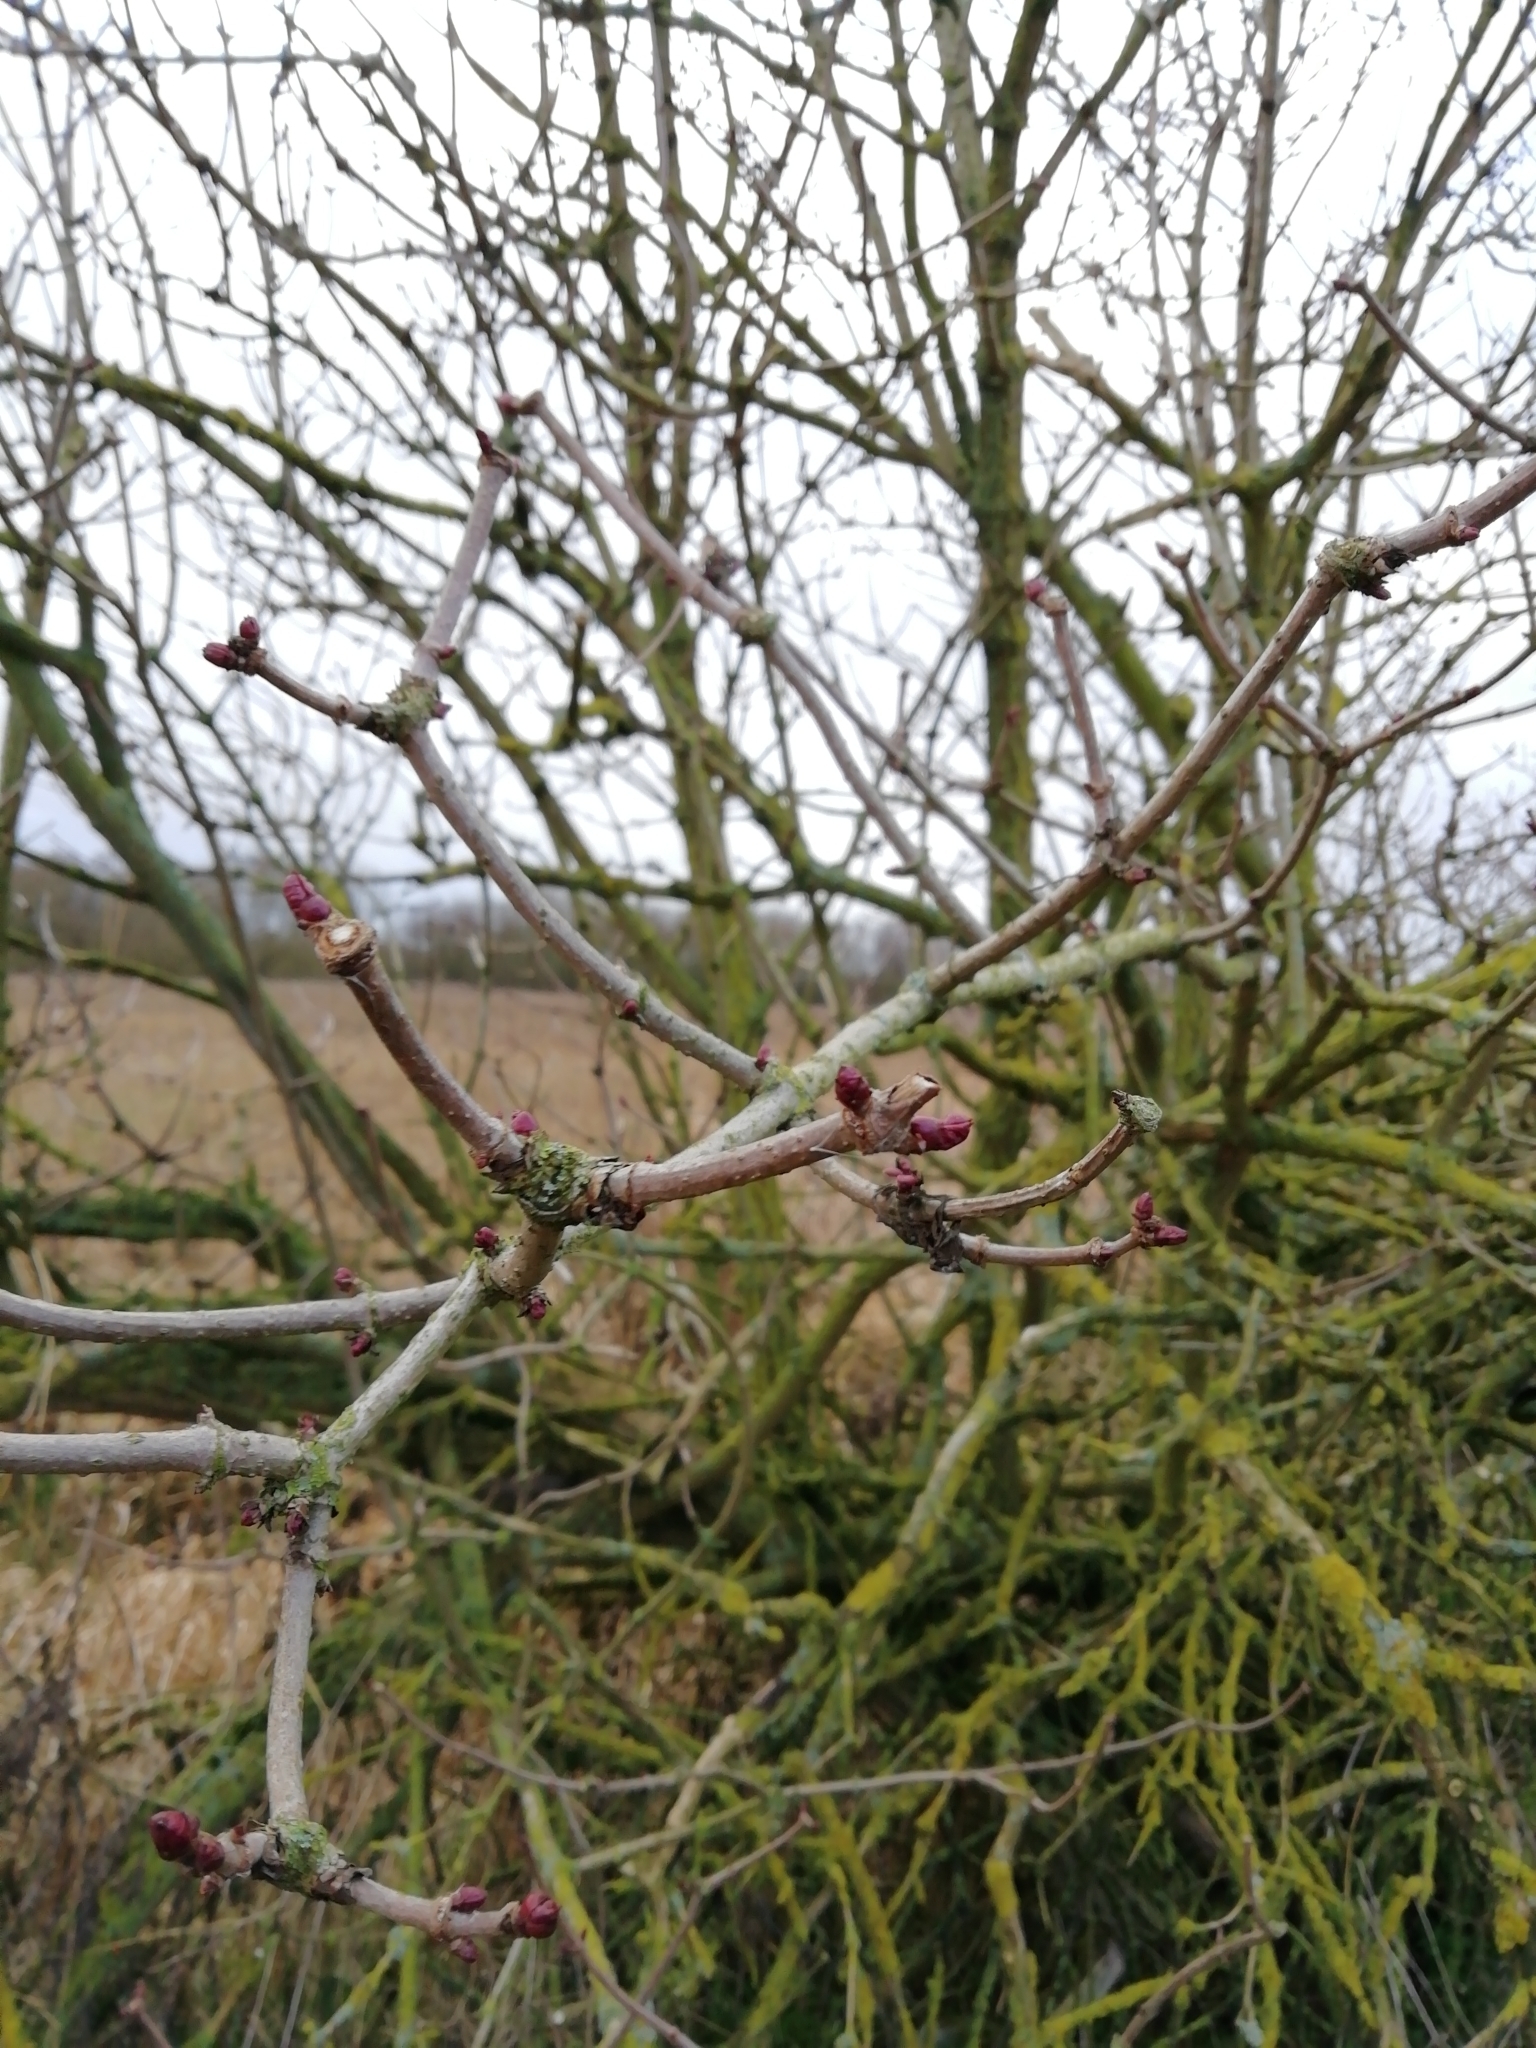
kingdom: Plantae
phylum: Tracheophyta
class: Magnoliopsida
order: Dipsacales
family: Viburnaceae
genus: Sambucus
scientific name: Sambucus nigra
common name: Elder
